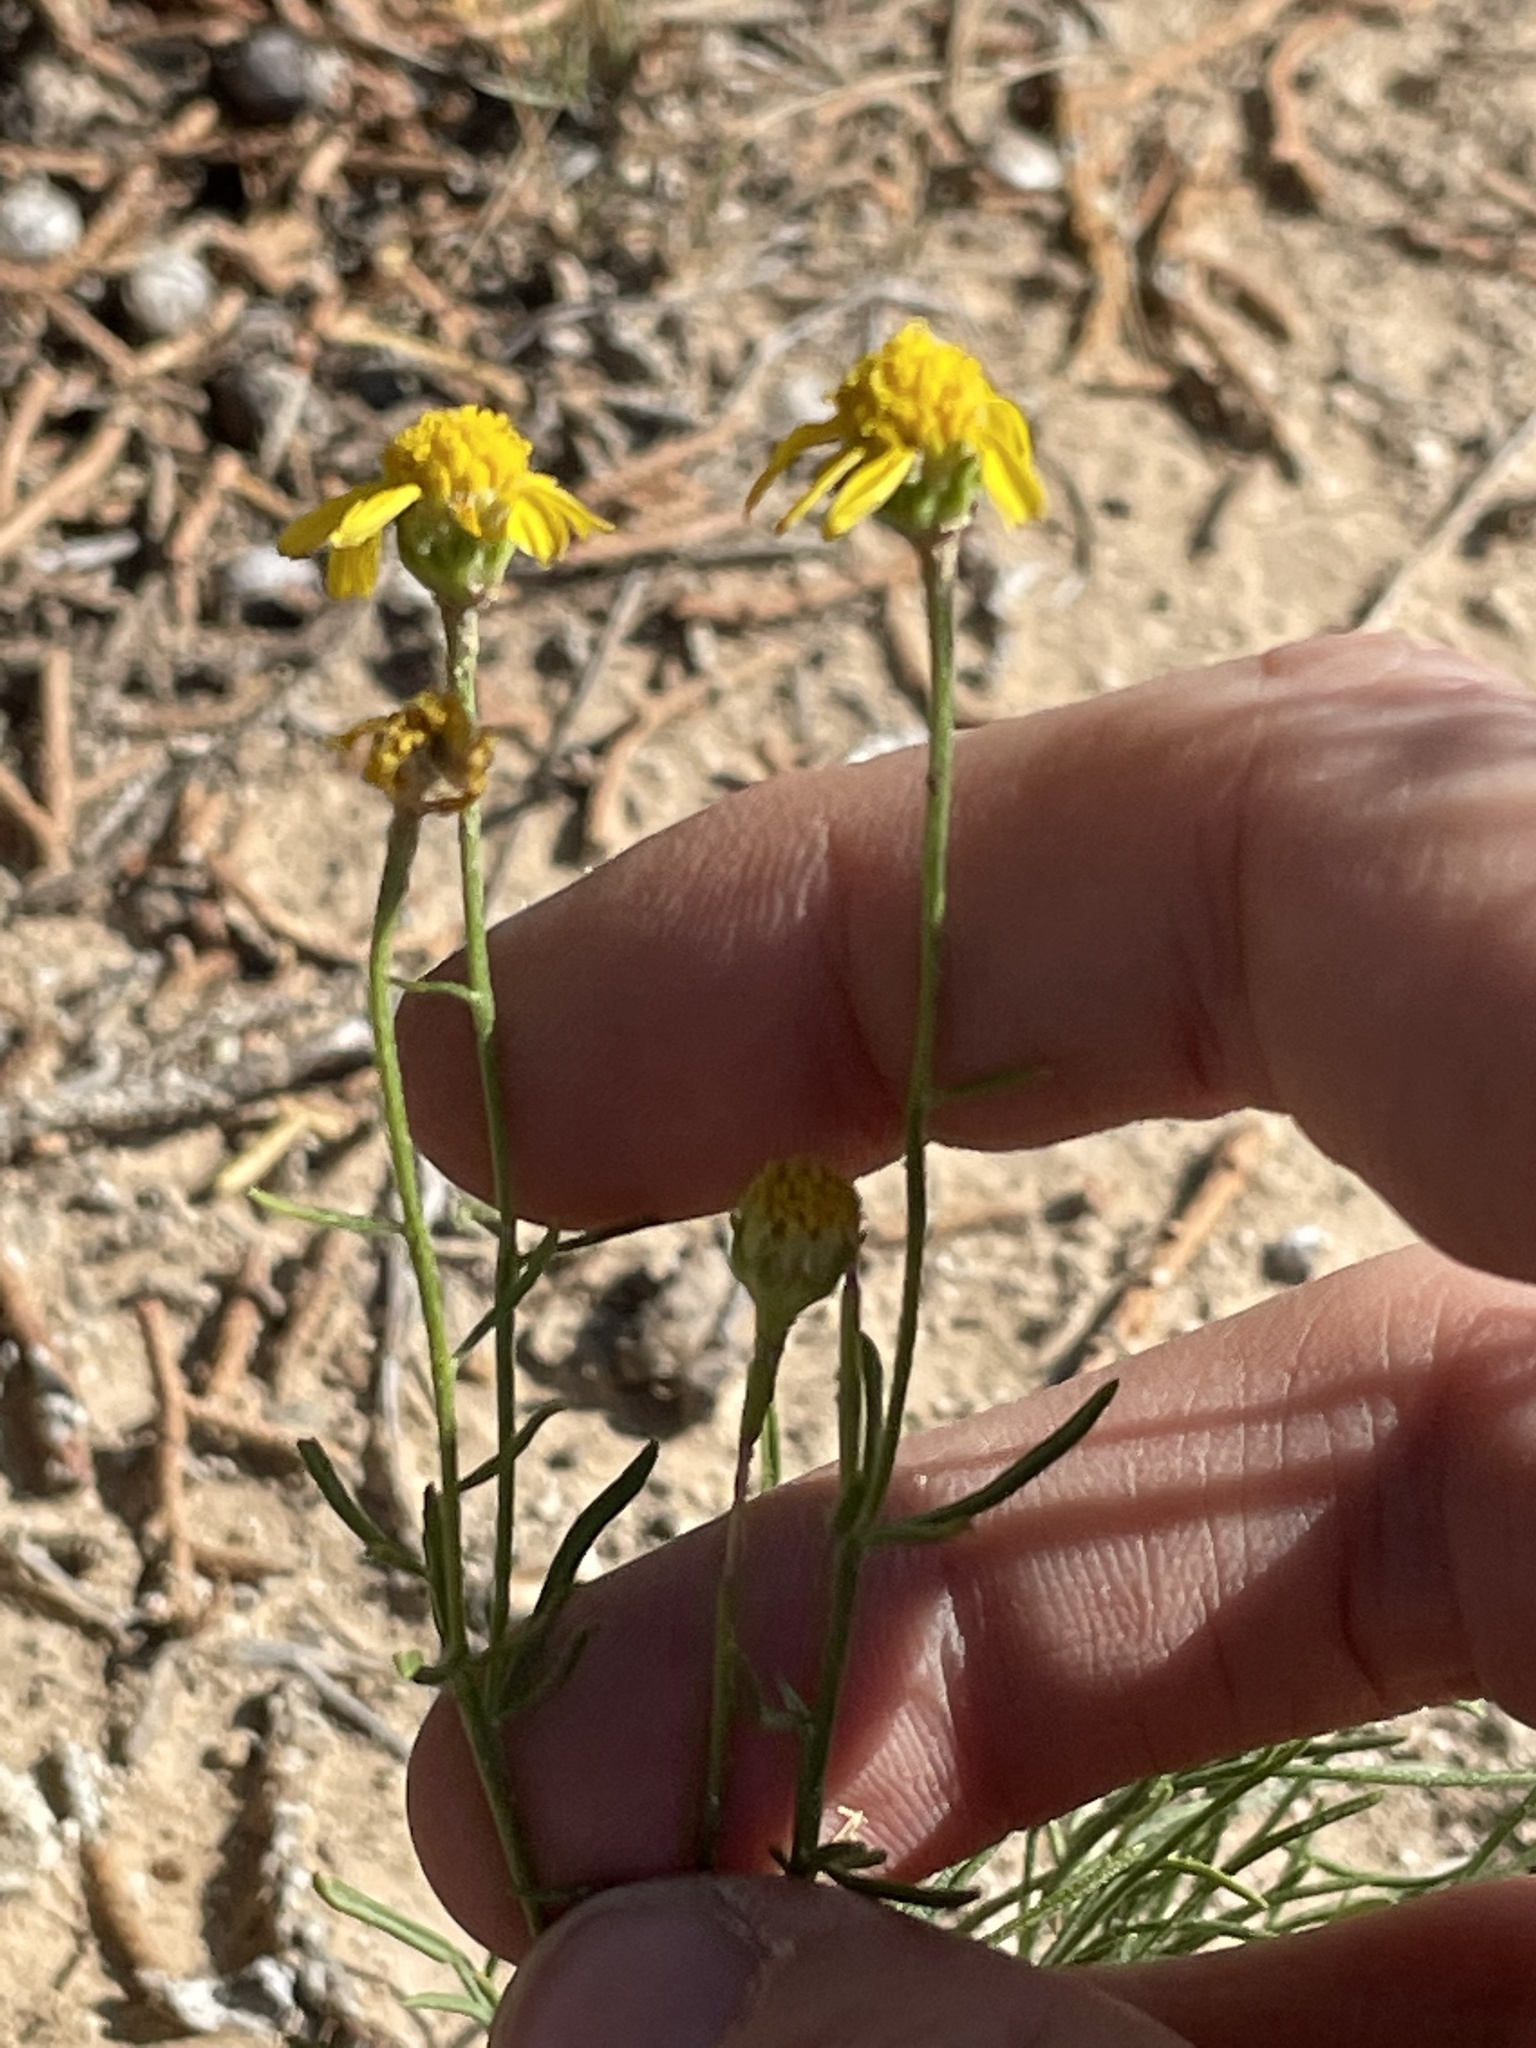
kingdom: Plantae
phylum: Tracheophyta
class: Magnoliopsida
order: Asterales
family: Asteraceae
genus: Hymenoxys
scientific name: Hymenoxys richardsonii
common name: Pingue rubberweed
